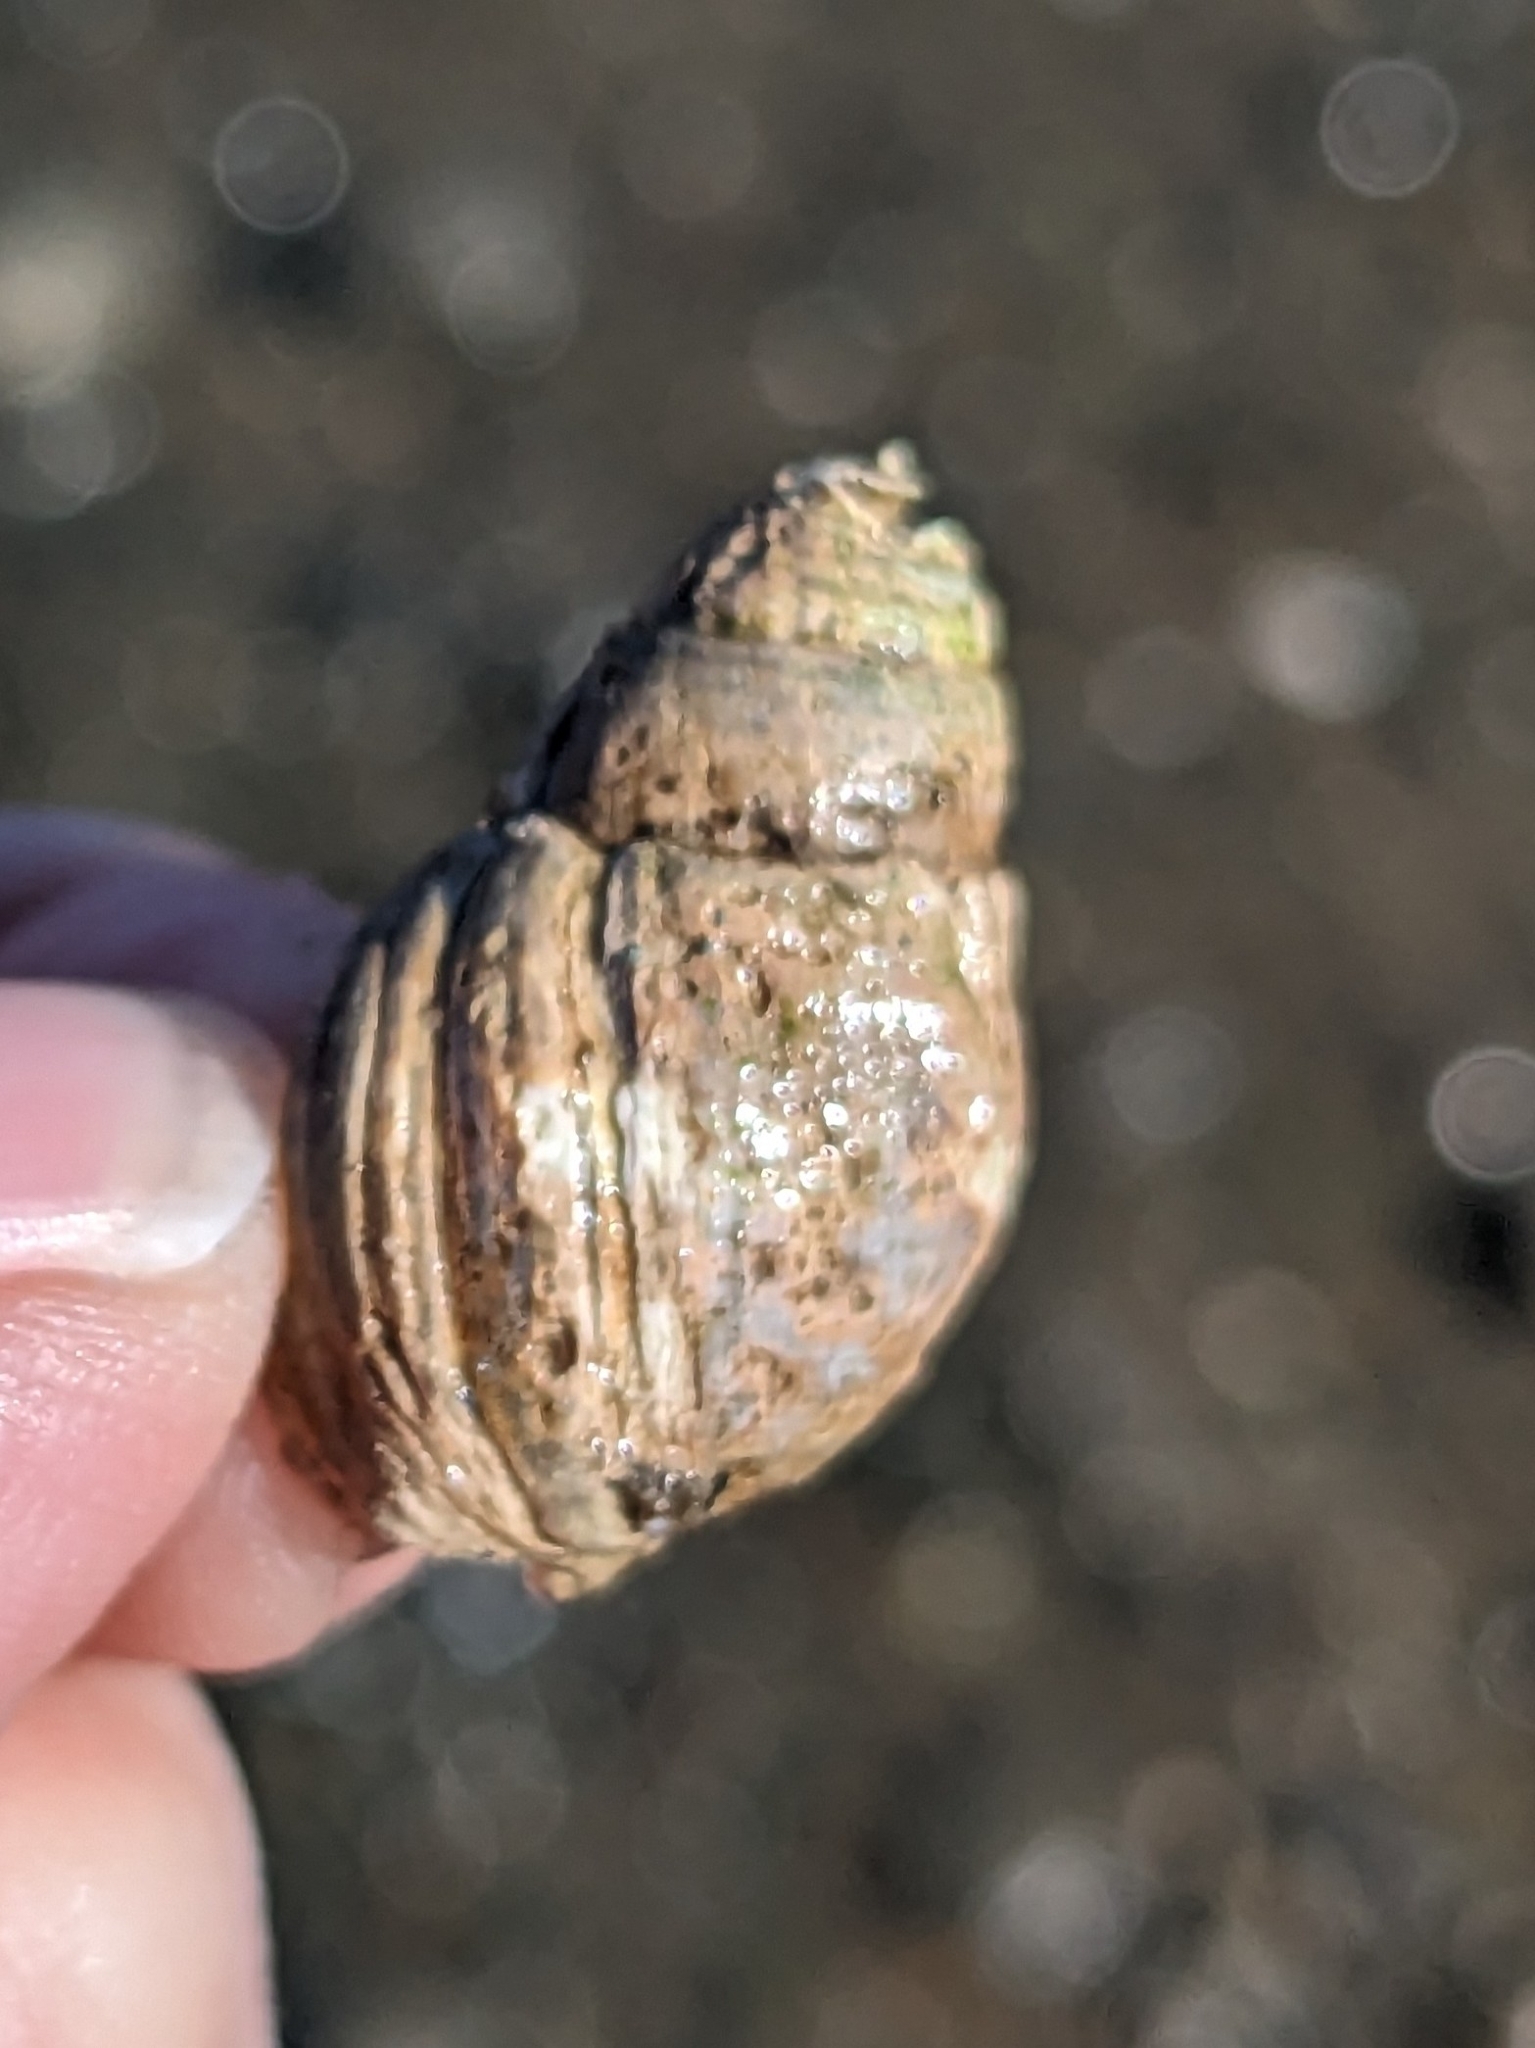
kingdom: Animalia
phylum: Mollusca
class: Gastropoda
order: Neogastropoda
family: Nassariidae
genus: Ilyanassa
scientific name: Ilyanassa obsoleta
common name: Eastern mudsnail
